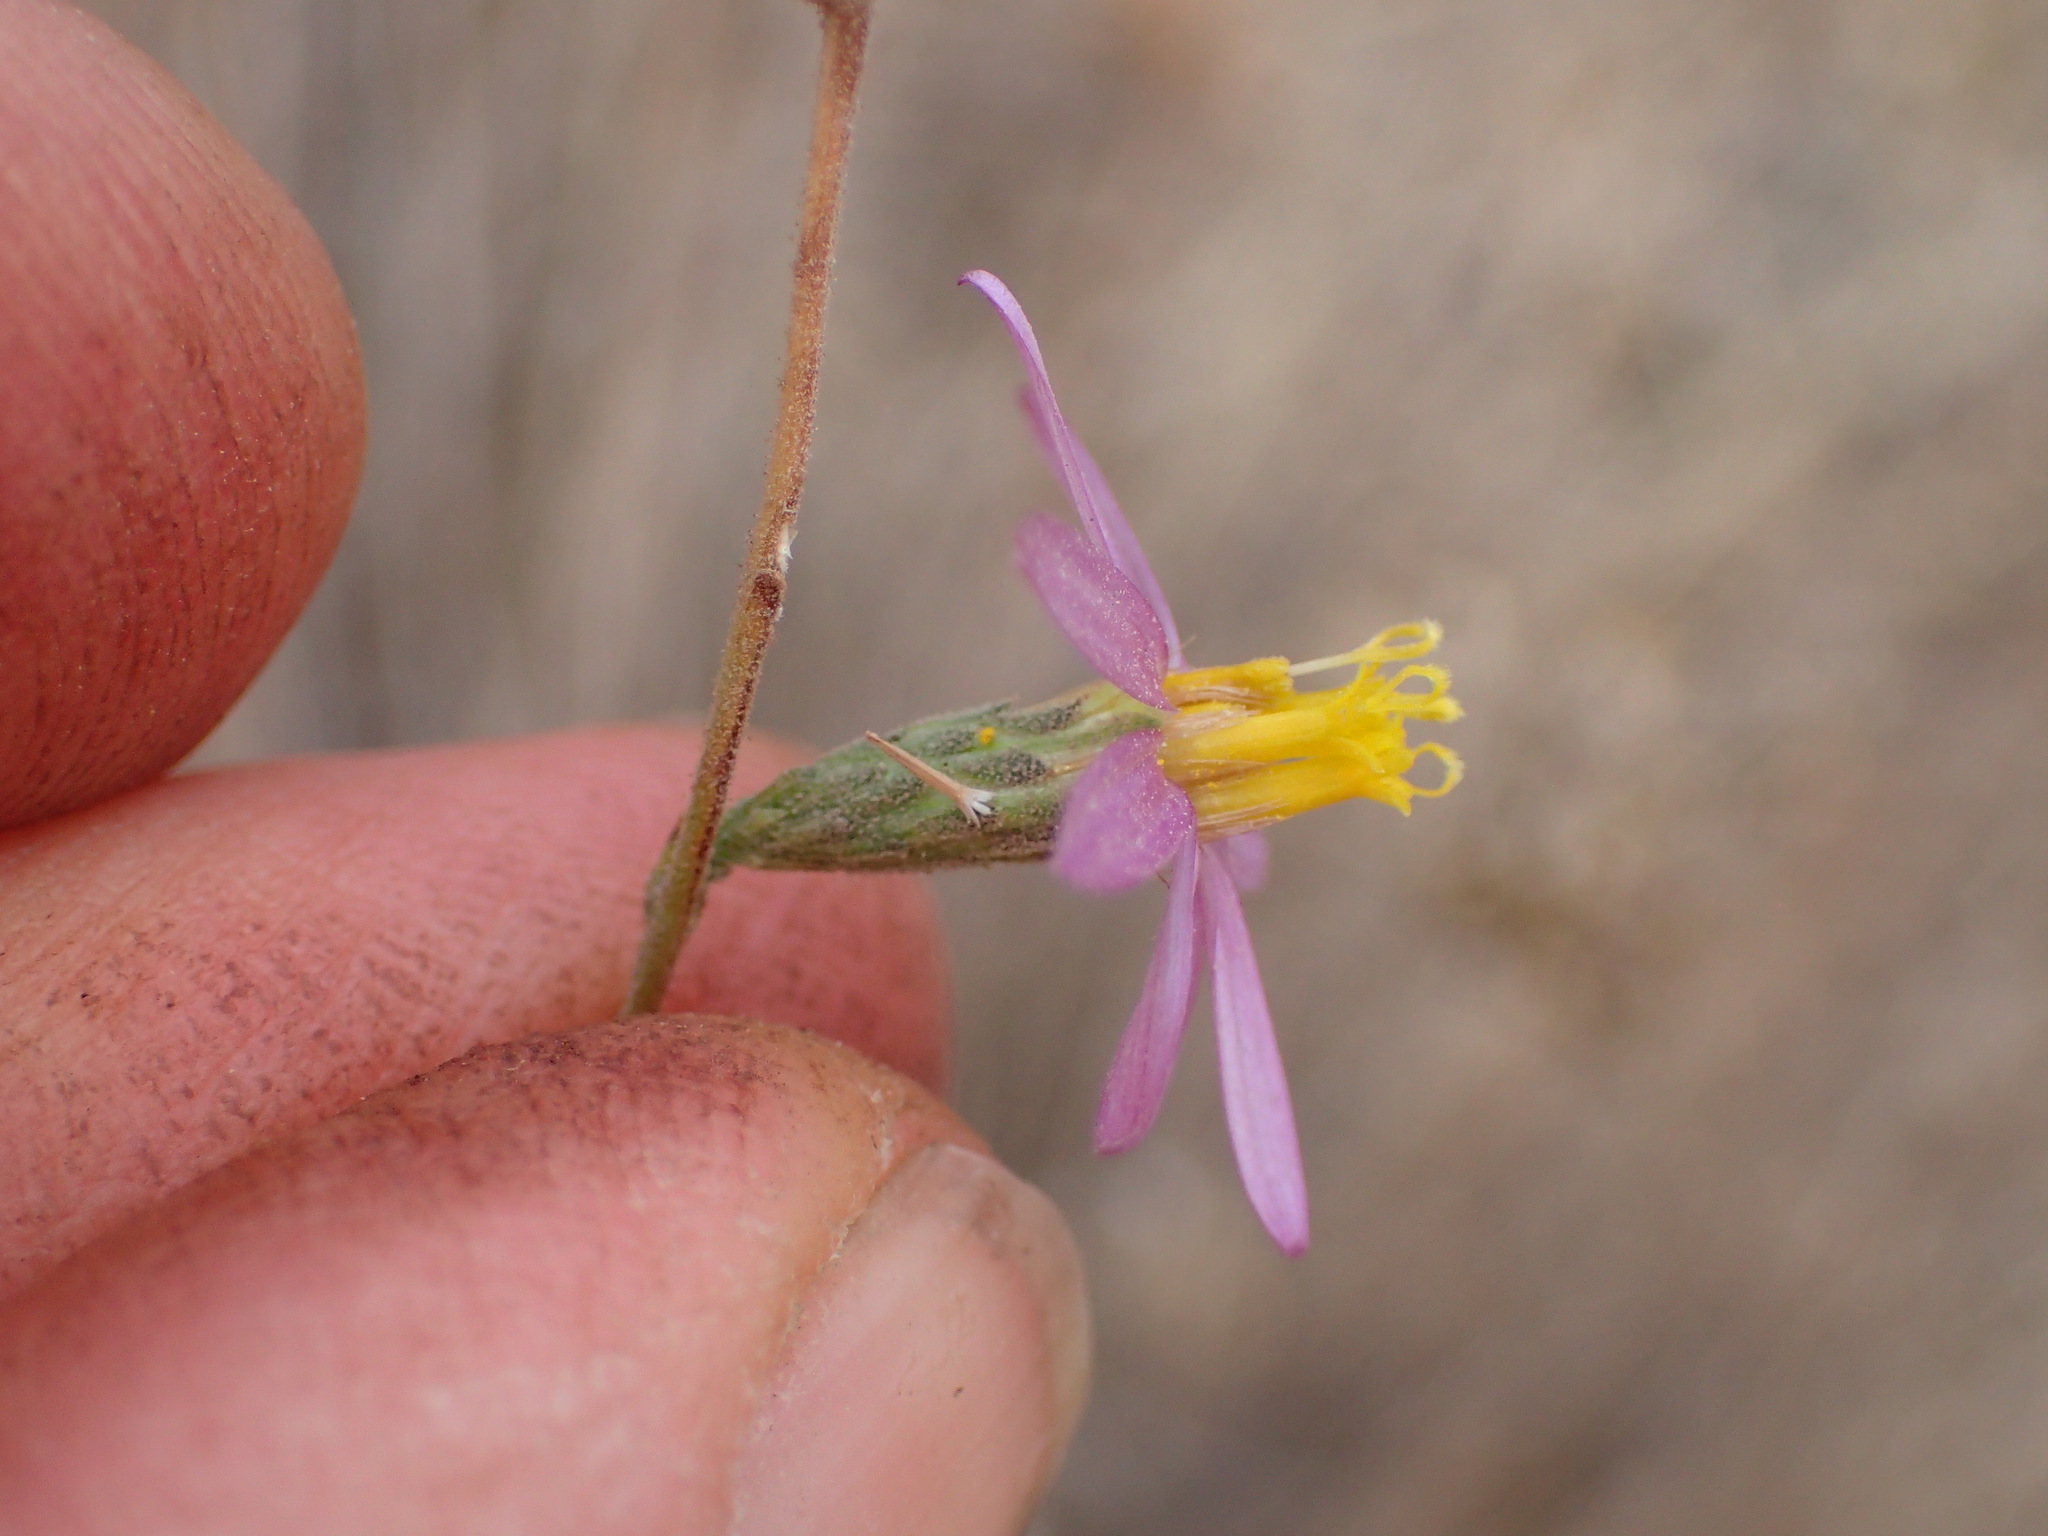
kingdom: Plantae
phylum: Tracheophyta
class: Magnoliopsida
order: Asterales
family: Asteraceae
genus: Corethrogyne
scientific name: Corethrogyne filaginifolia
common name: Sand-aster
